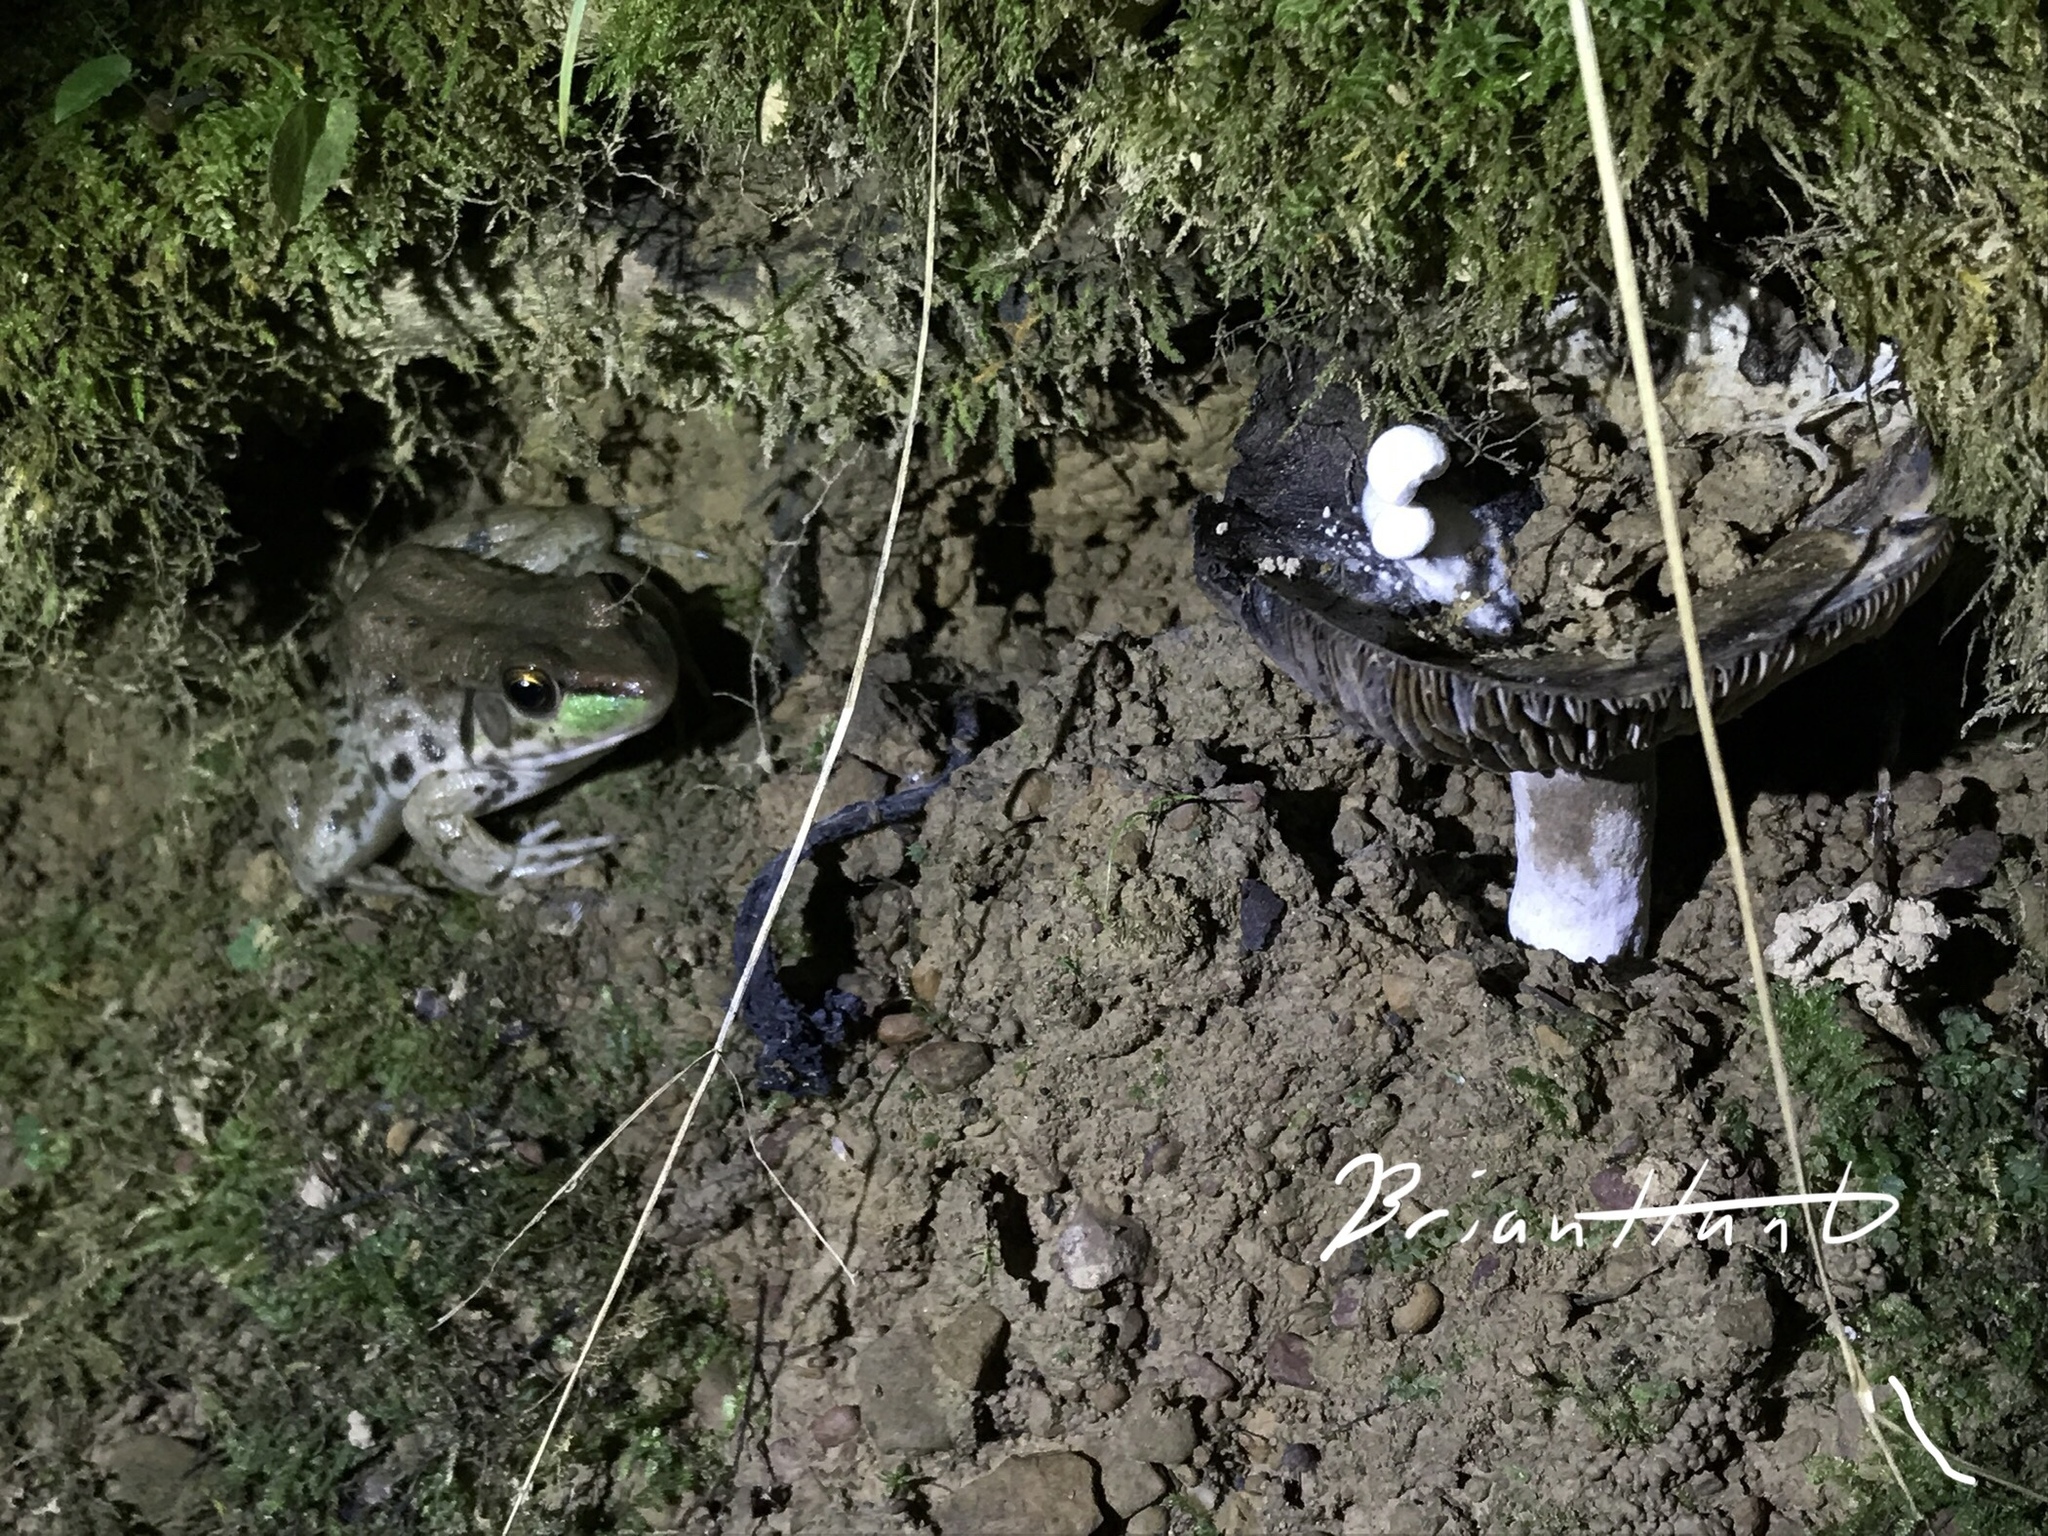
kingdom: Fungi
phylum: Basidiomycota
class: Agaricomycetes
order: Agaricales
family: Lyophyllaceae
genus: Asterophora
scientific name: Asterophora lycoperdoides
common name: Pick-a-back toadstool
